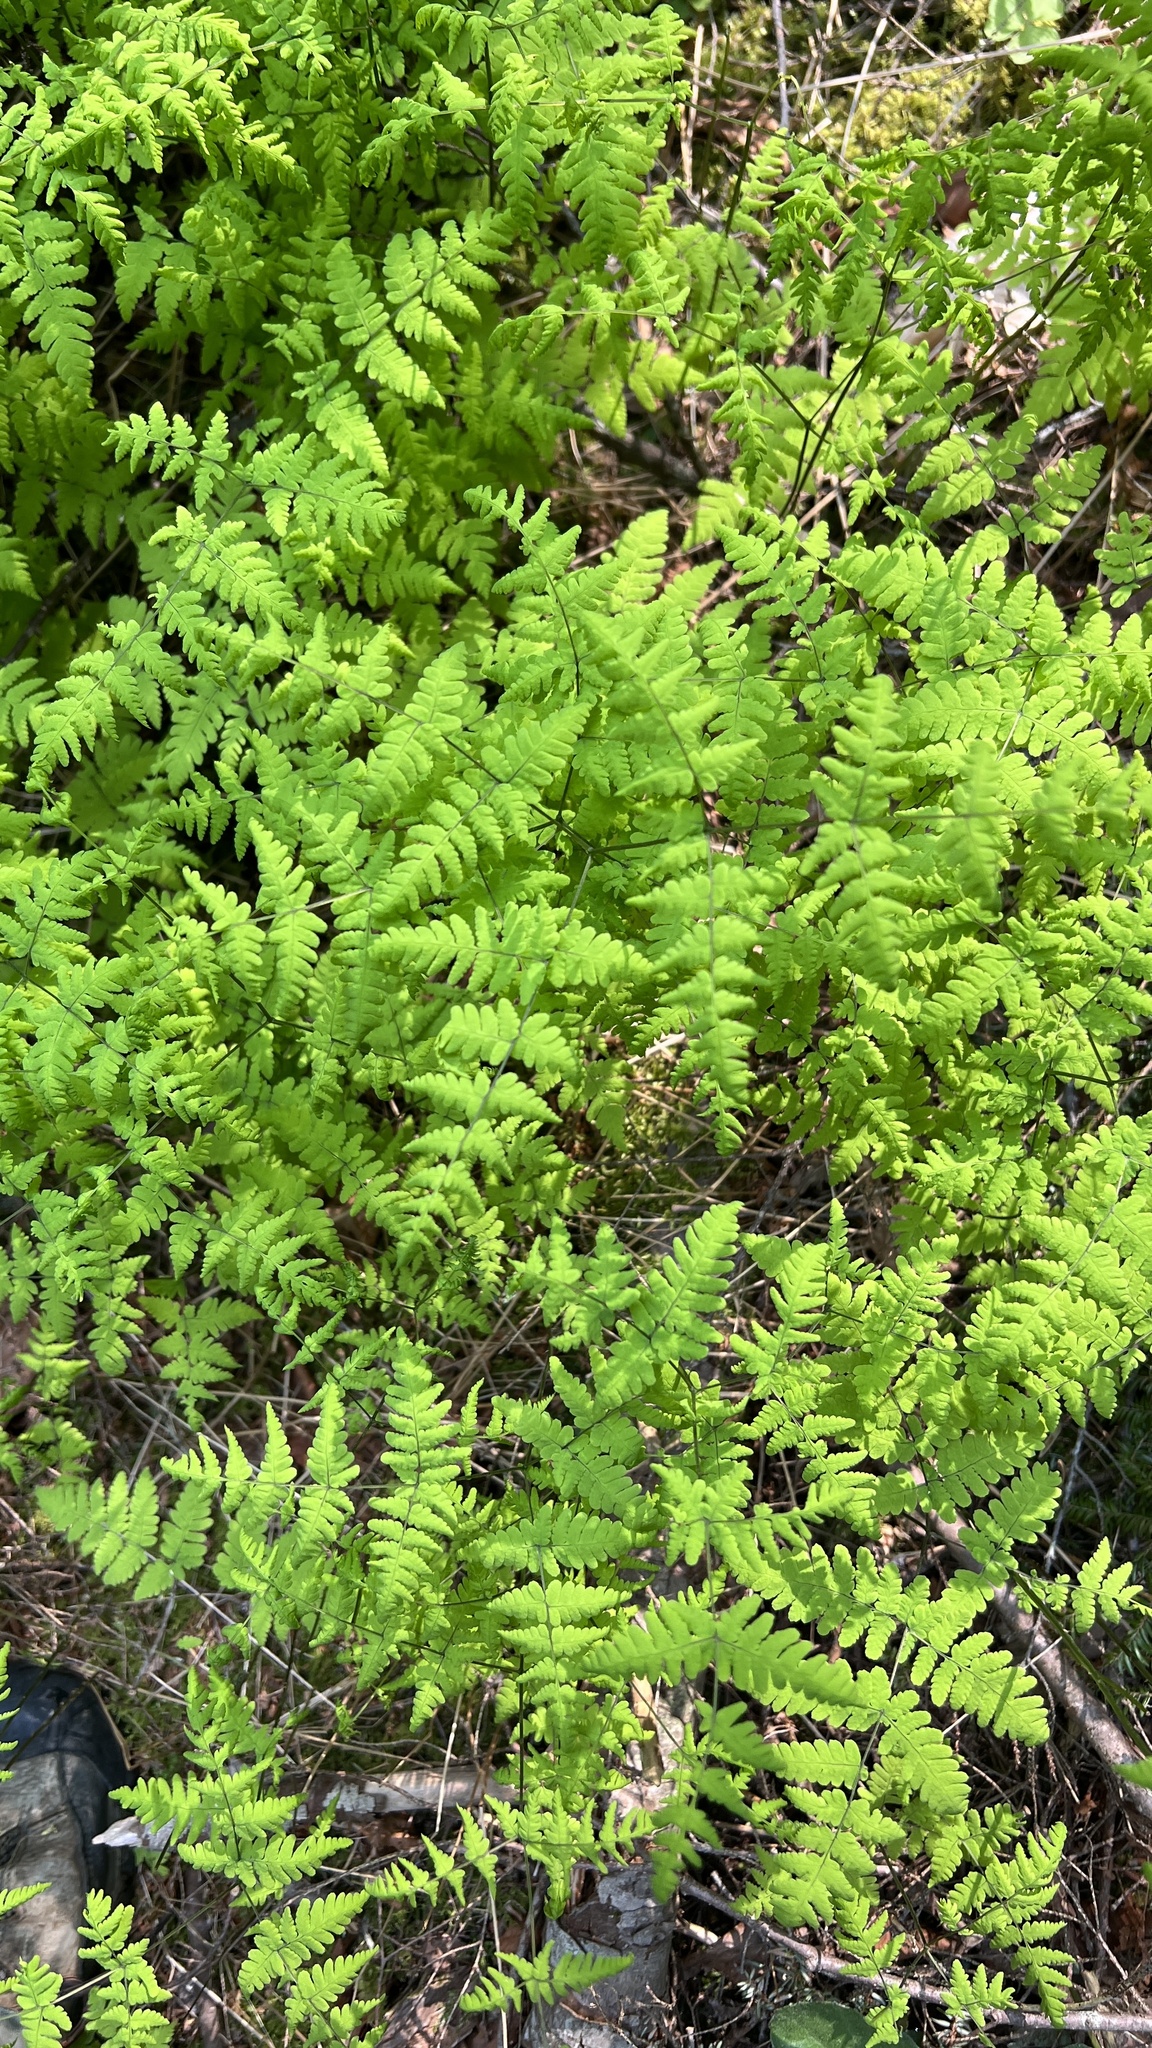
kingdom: Plantae
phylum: Tracheophyta
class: Polypodiopsida
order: Polypodiales
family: Cystopteridaceae
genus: Gymnocarpium
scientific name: Gymnocarpium dryopteris
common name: Oak fern
